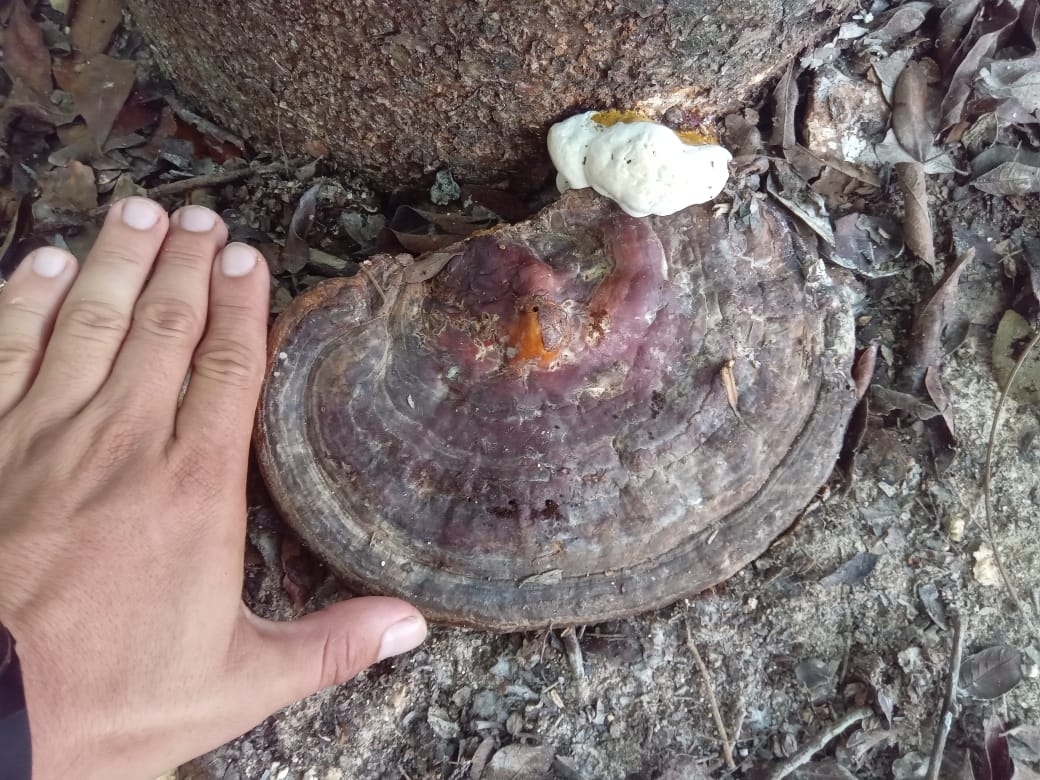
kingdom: Fungi
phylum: Basidiomycota
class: Agaricomycetes
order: Polyporales
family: Polyporaceae
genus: Ganoderma
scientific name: Ganoderma resinaceum
